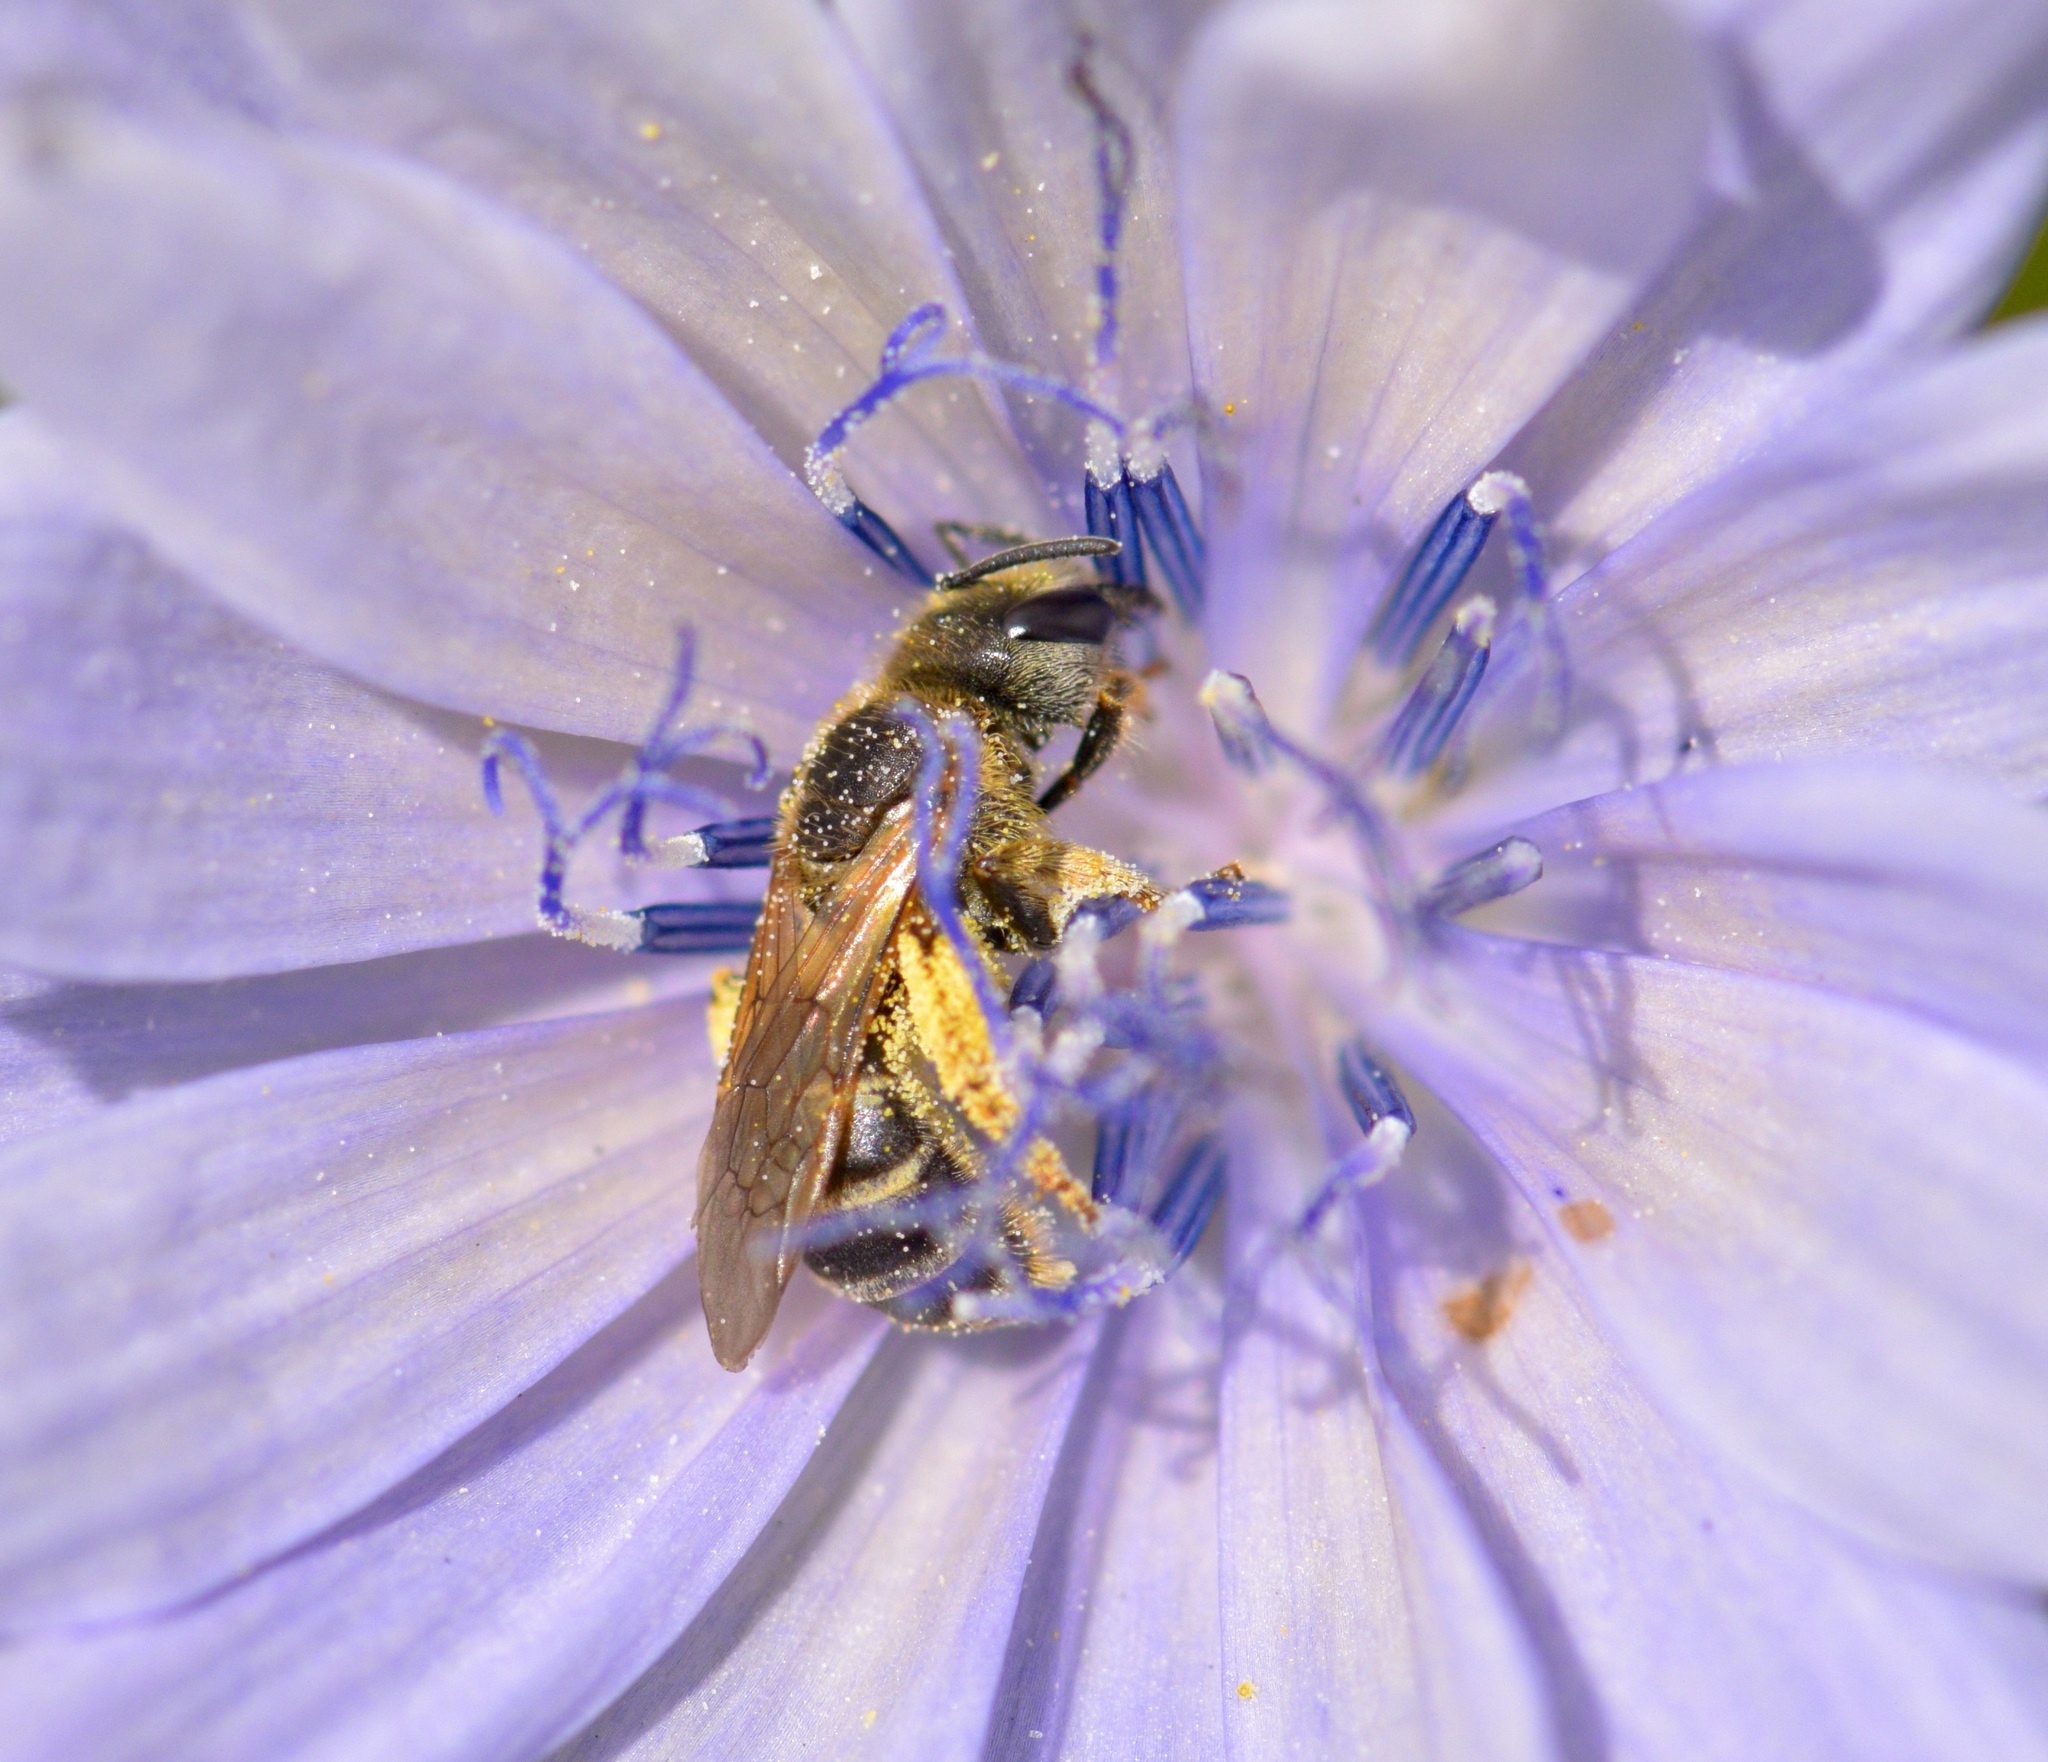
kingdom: Animalia
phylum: Arthropoda
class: Insecta
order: Hymenoptera
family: Halictidae
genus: Halictus
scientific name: Halictus ligatus
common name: Ligated furrow bee
